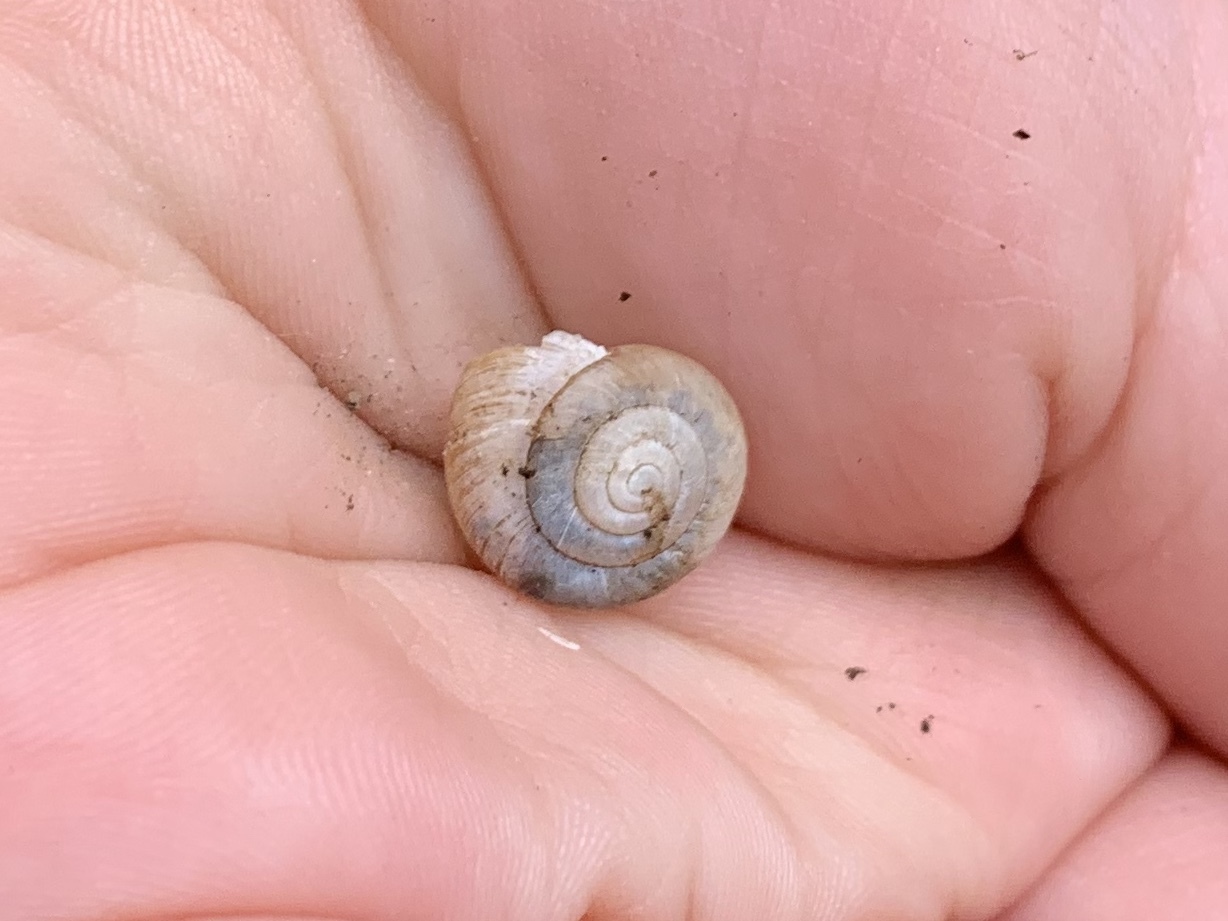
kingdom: Animalia
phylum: Mollusca
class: Gastropoda
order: Stylommatophora
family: Polygyridae
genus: Ashmunella
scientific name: Ashmunella rhyssa
